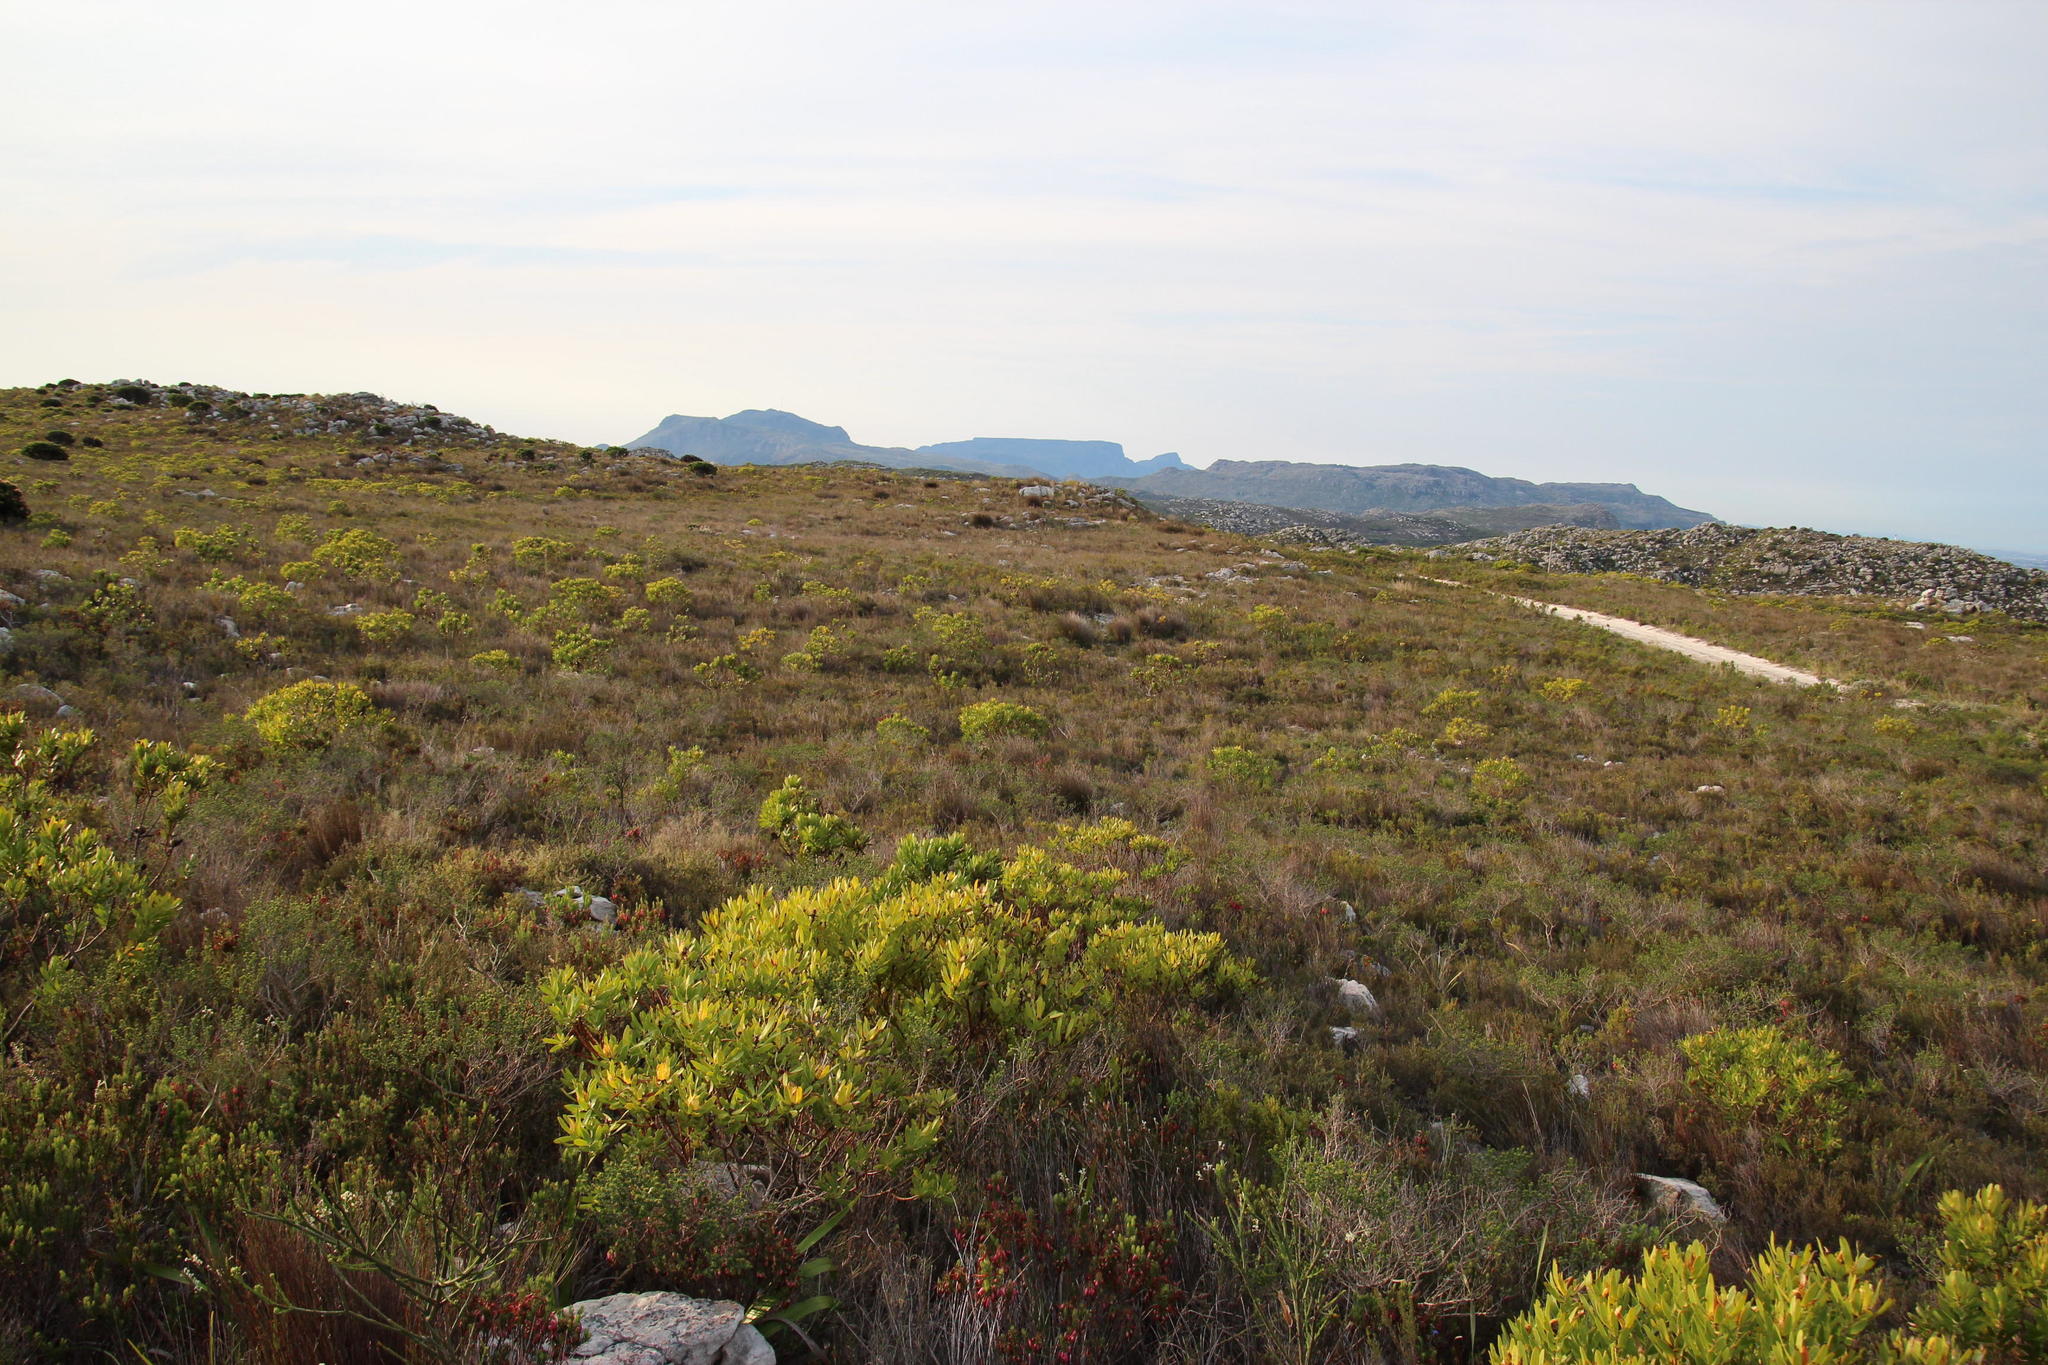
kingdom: Plantae
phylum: Tracheophyta
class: Magnoliopsida
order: Proteales
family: Proteaceae
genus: Leucadendron
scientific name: Leucadendron laureolum
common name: Golden sunshinebush
